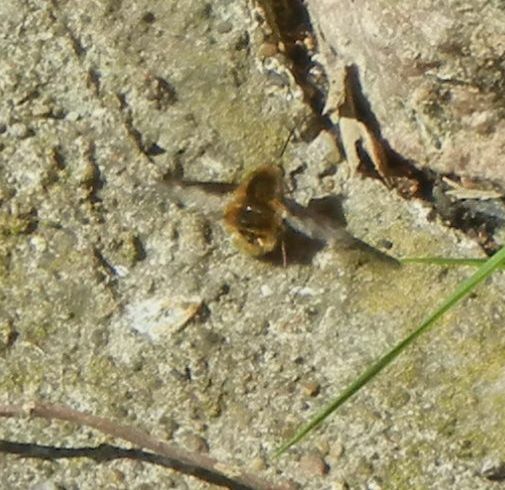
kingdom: Animalia
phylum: Arthropoda
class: Insecta
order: Diptera
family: Bombyliidae
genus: Bombylius
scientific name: Bombylius major
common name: Bee fly
